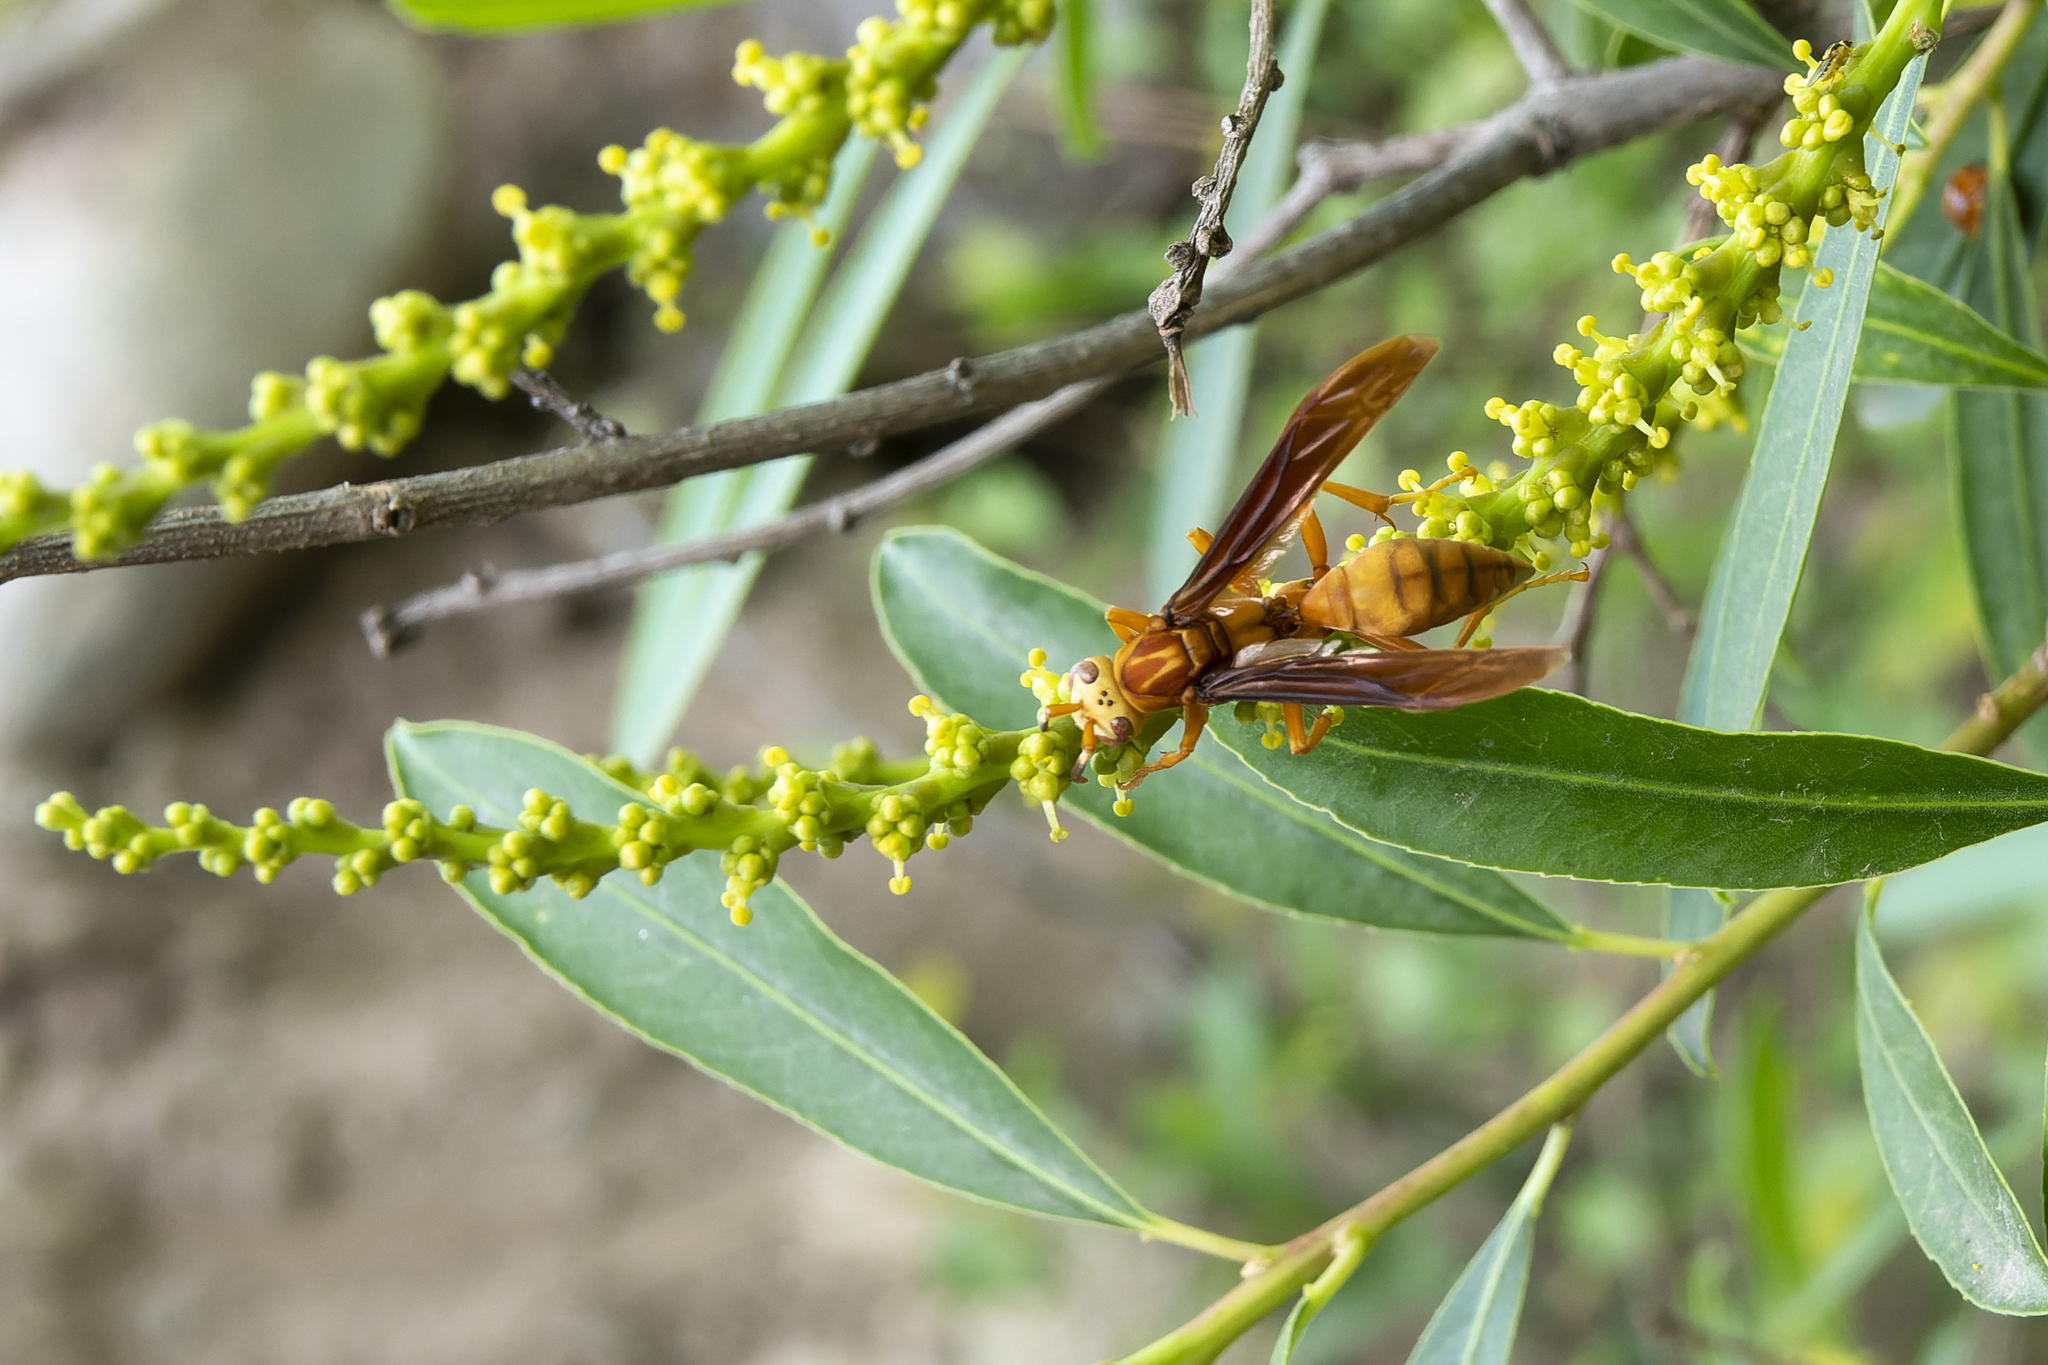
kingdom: Animalia
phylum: Arthropoda
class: Insecta
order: Hymenoptera
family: Eumenidae
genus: Polistes
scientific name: Polistes cavapyta
